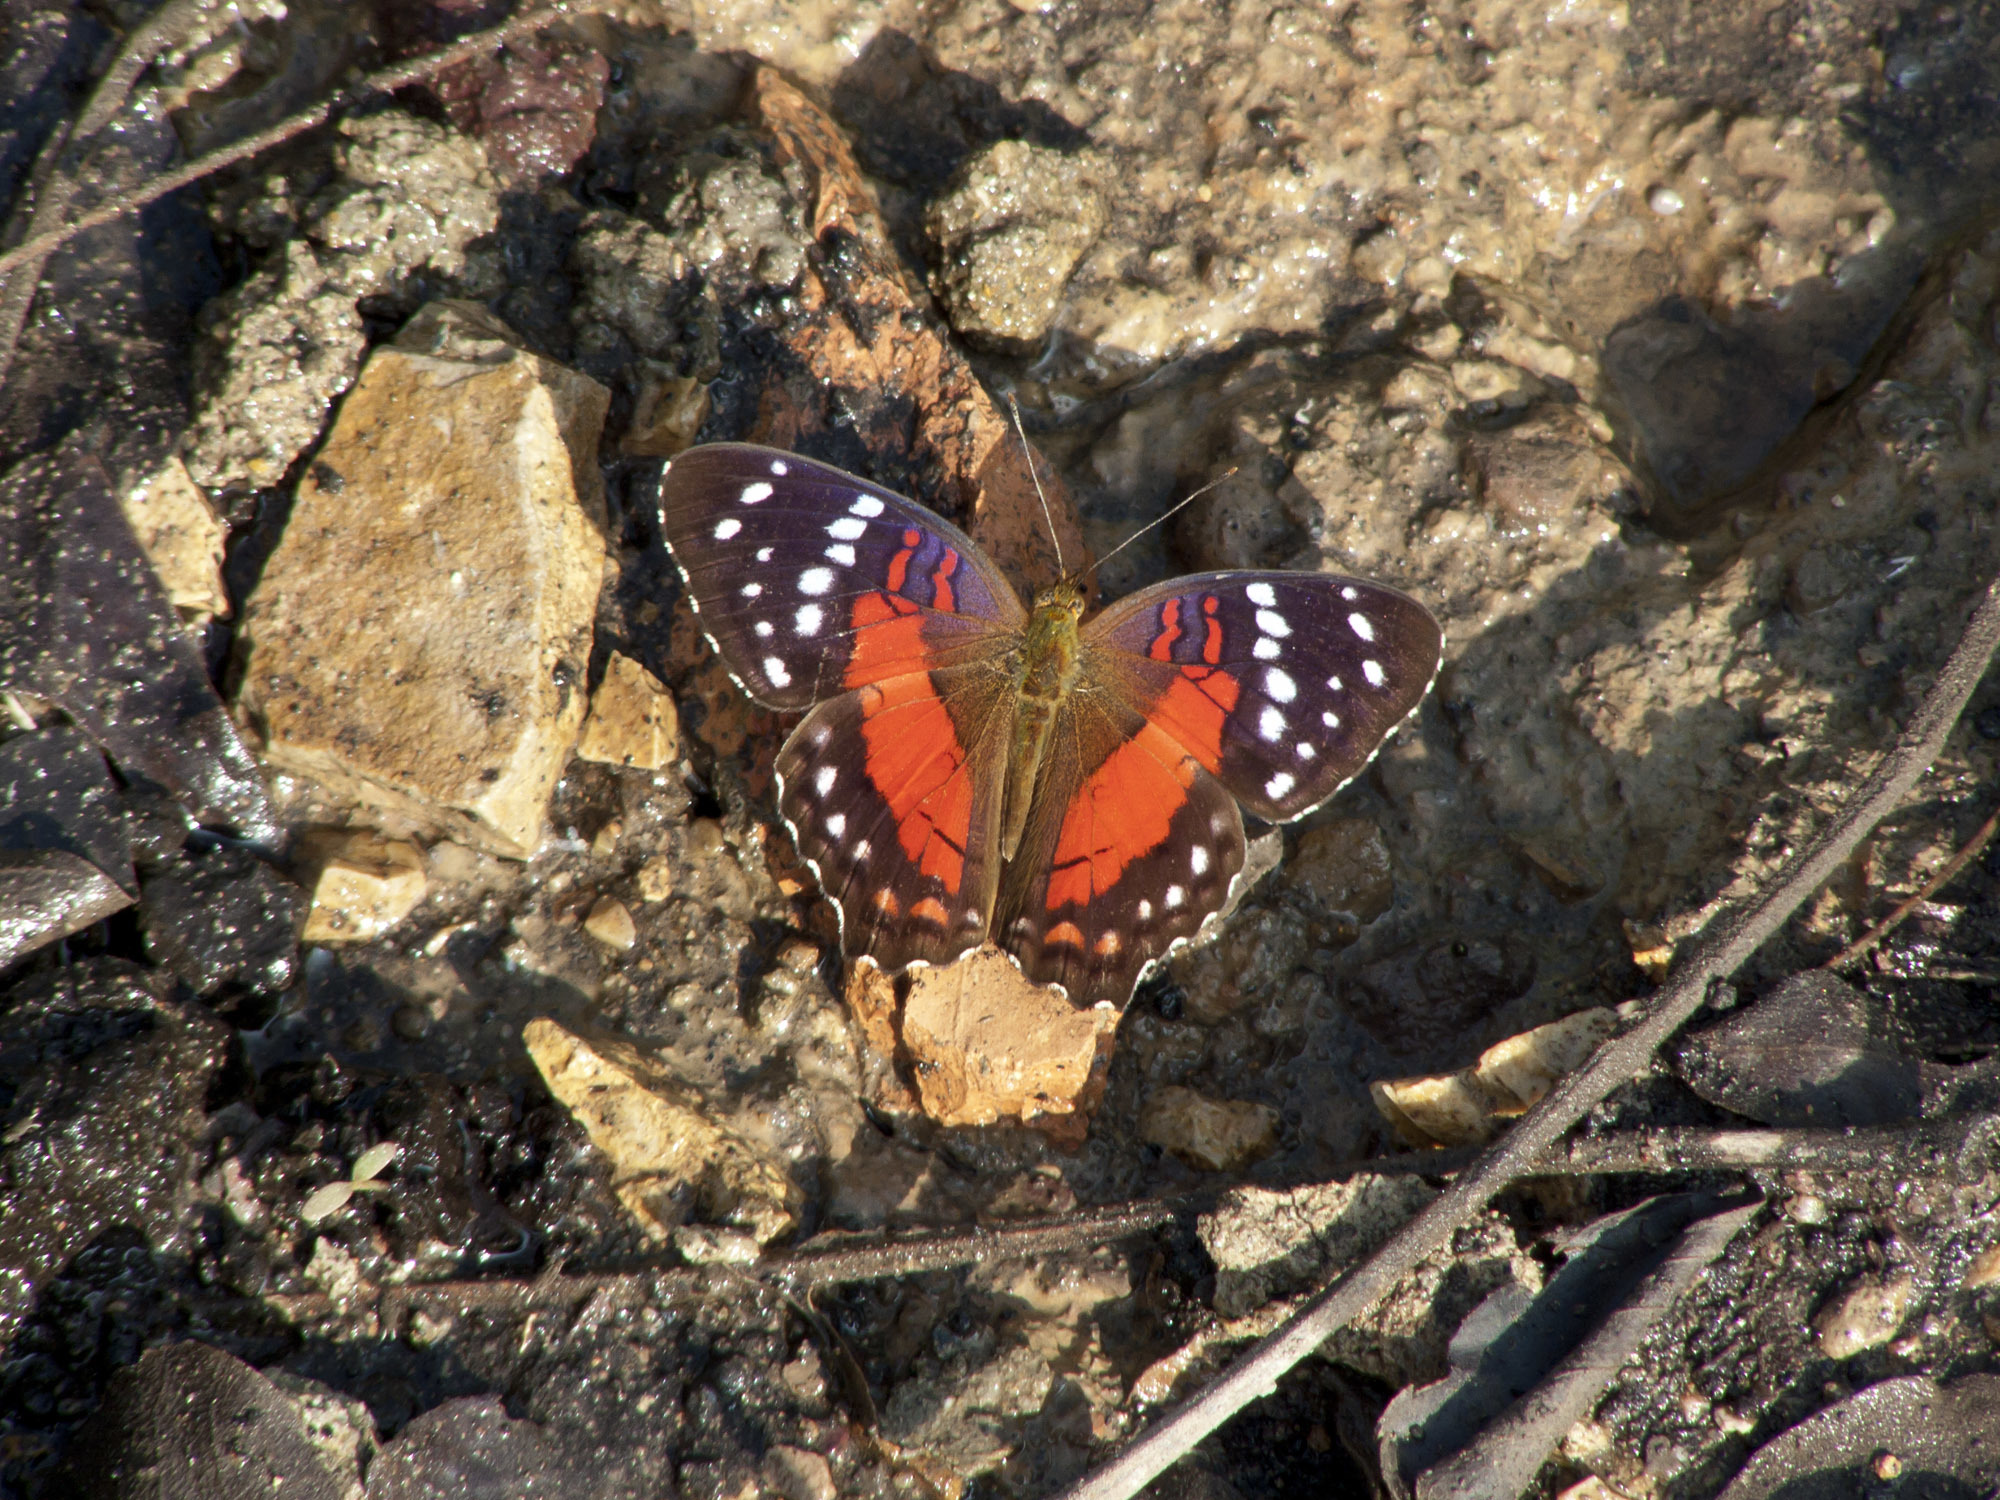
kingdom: Animalia
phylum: Arthropoda
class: Insecta
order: Lepidoptera
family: Nymphalidae
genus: Anartia
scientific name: Anartia amathea
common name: Red peacock
